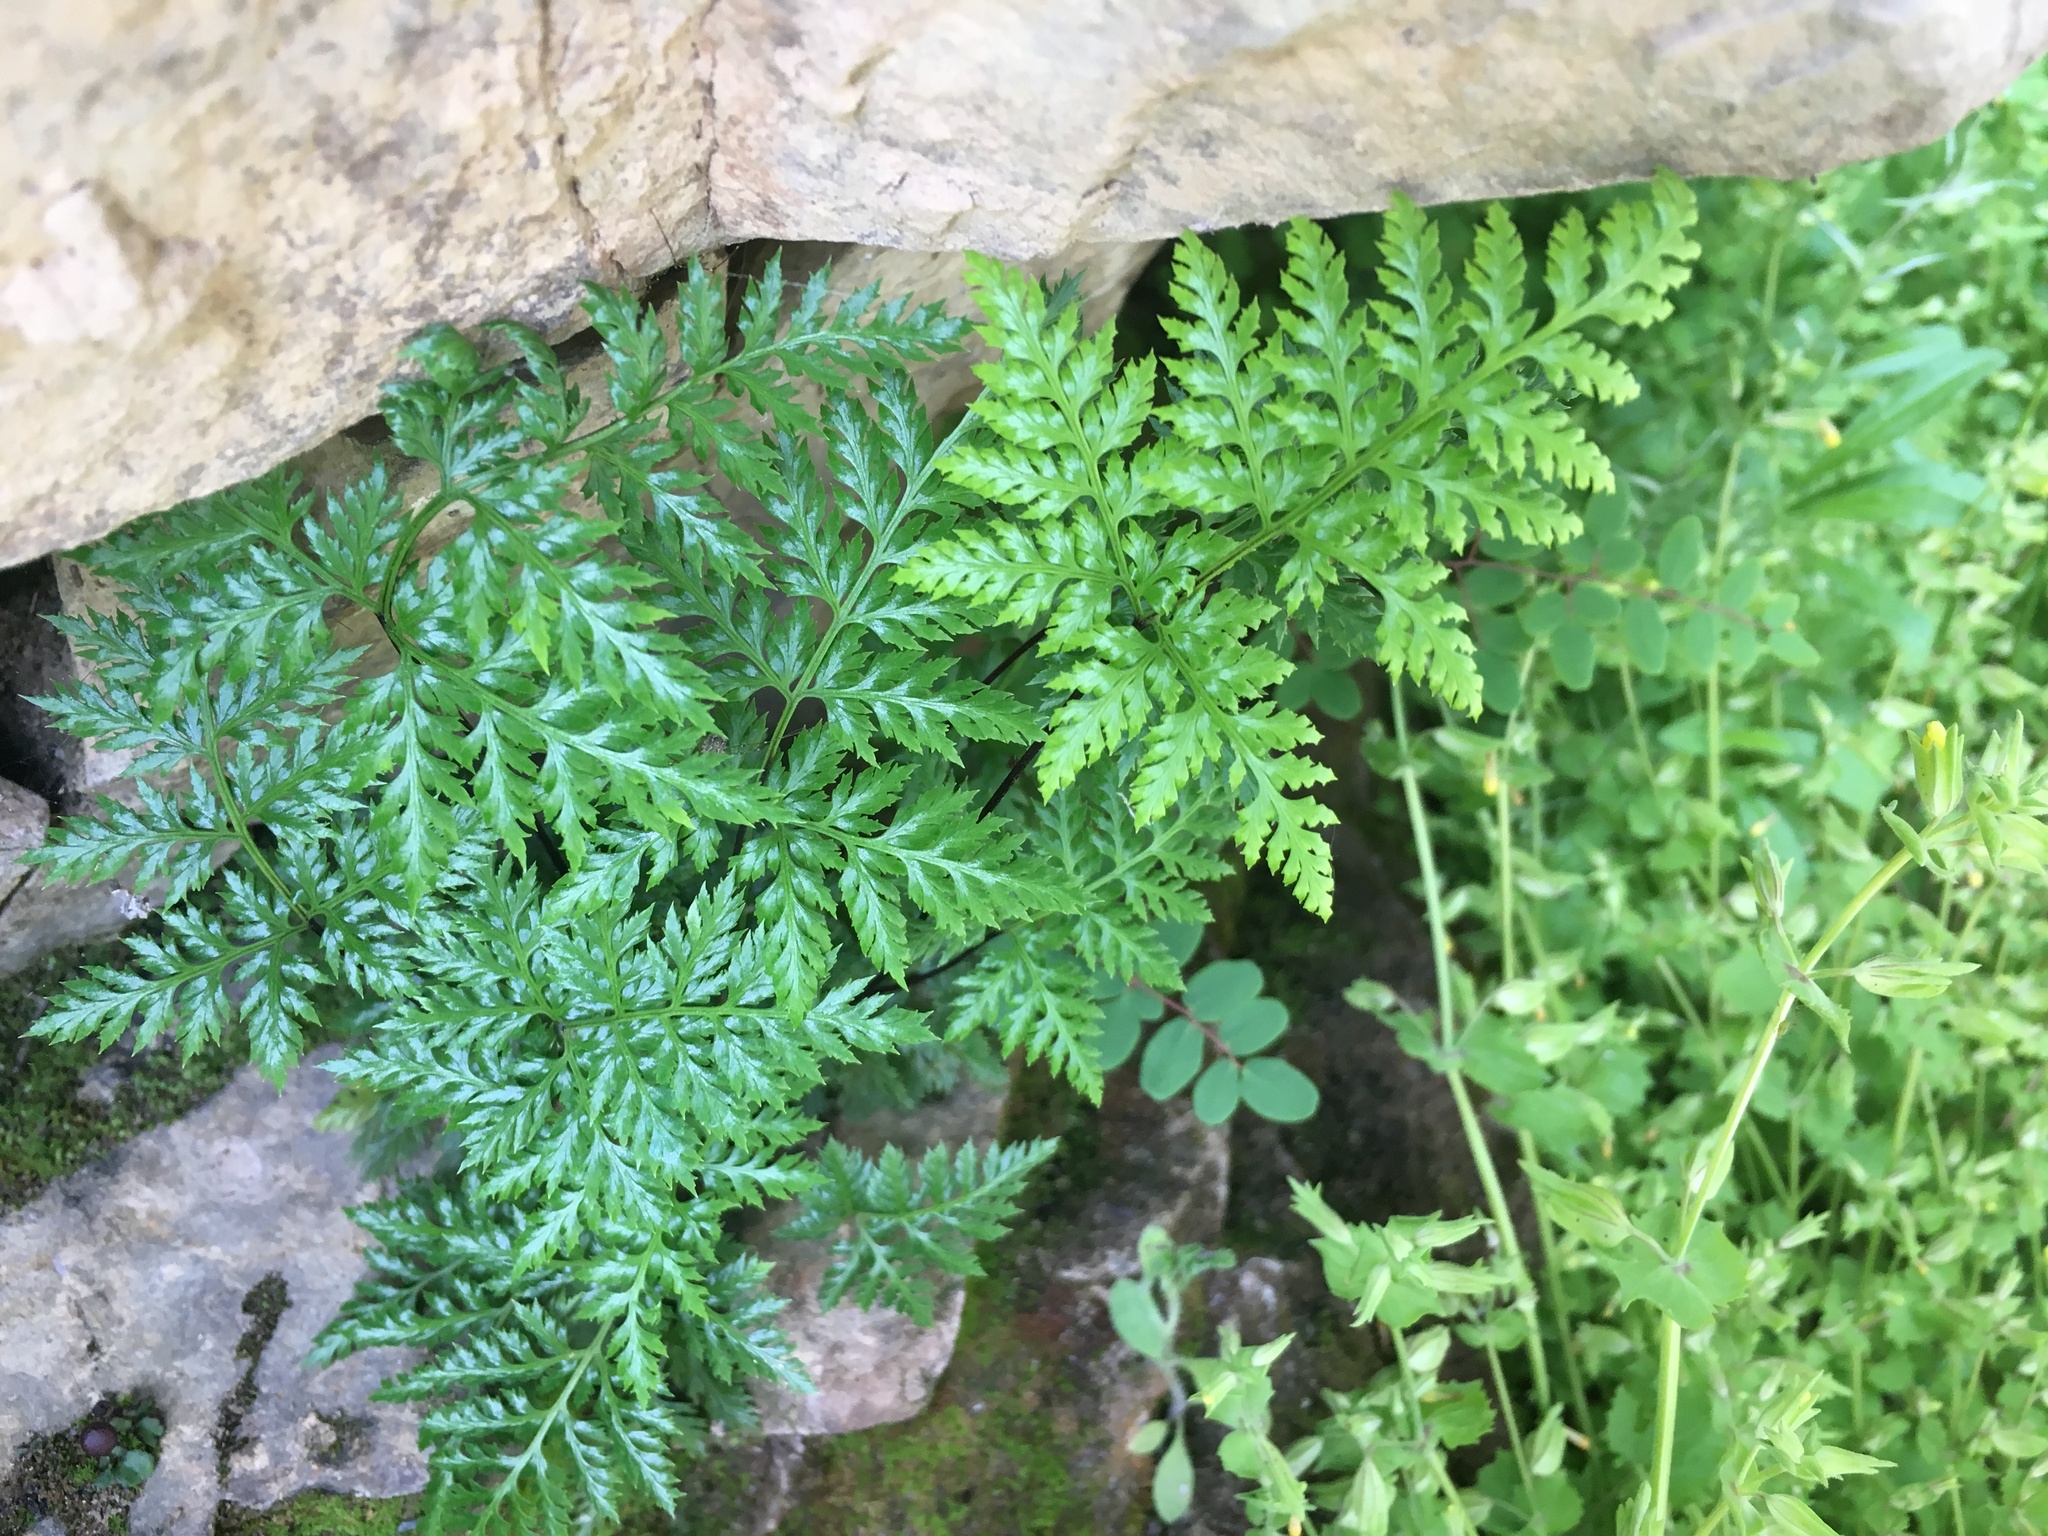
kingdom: Plantae
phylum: Tracheophyta
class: Polypodiopsida
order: Polypodiales
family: Pteridaceae
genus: Aspidotis
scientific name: Aspidotis californica
